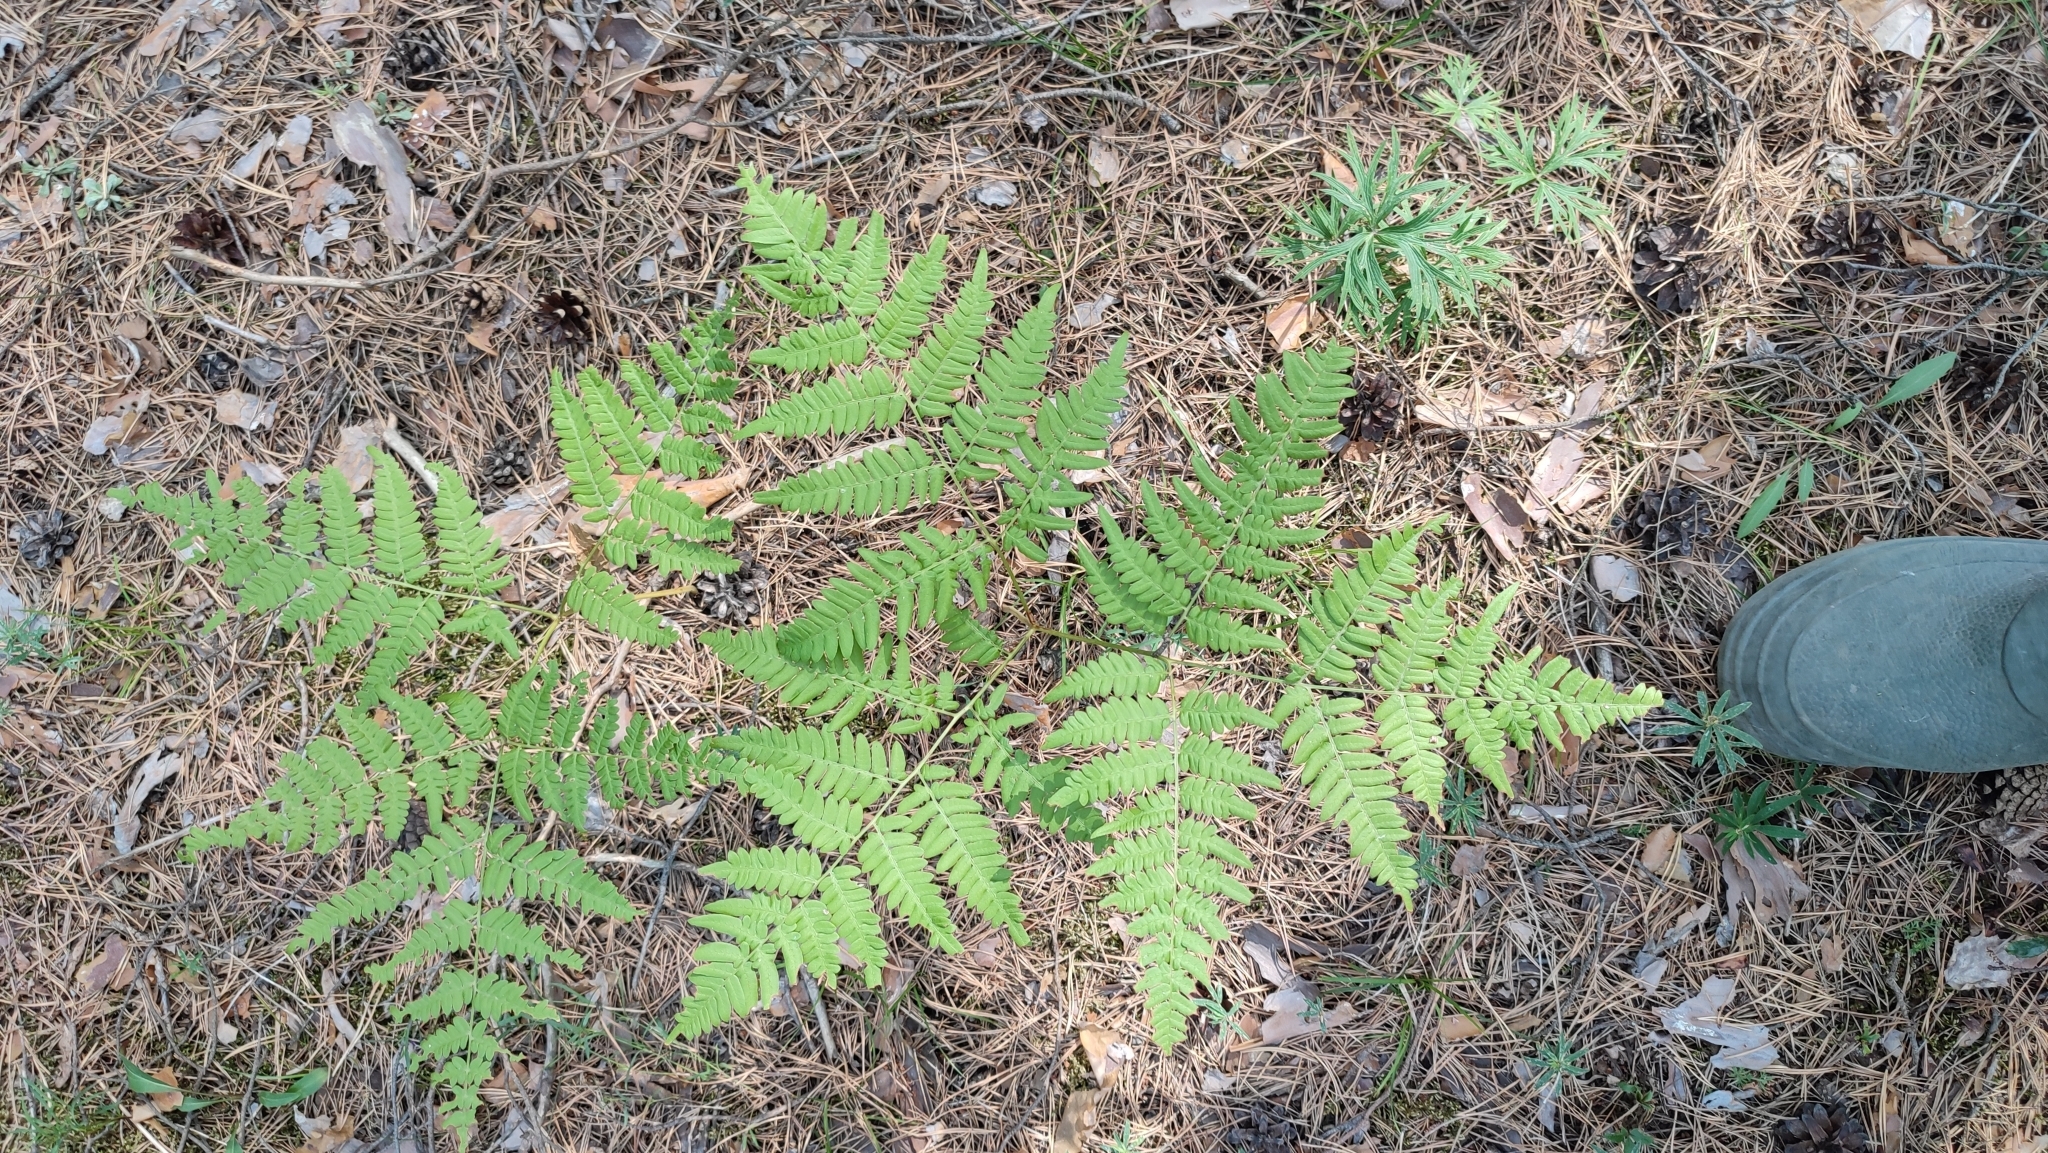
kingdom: Plantae
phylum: Tracheophyta
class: Polypodiopsida
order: Polypodiales
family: Dennstaedtiaceae
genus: Pteridium
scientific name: Pteridium aquilinum
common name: Bracken
